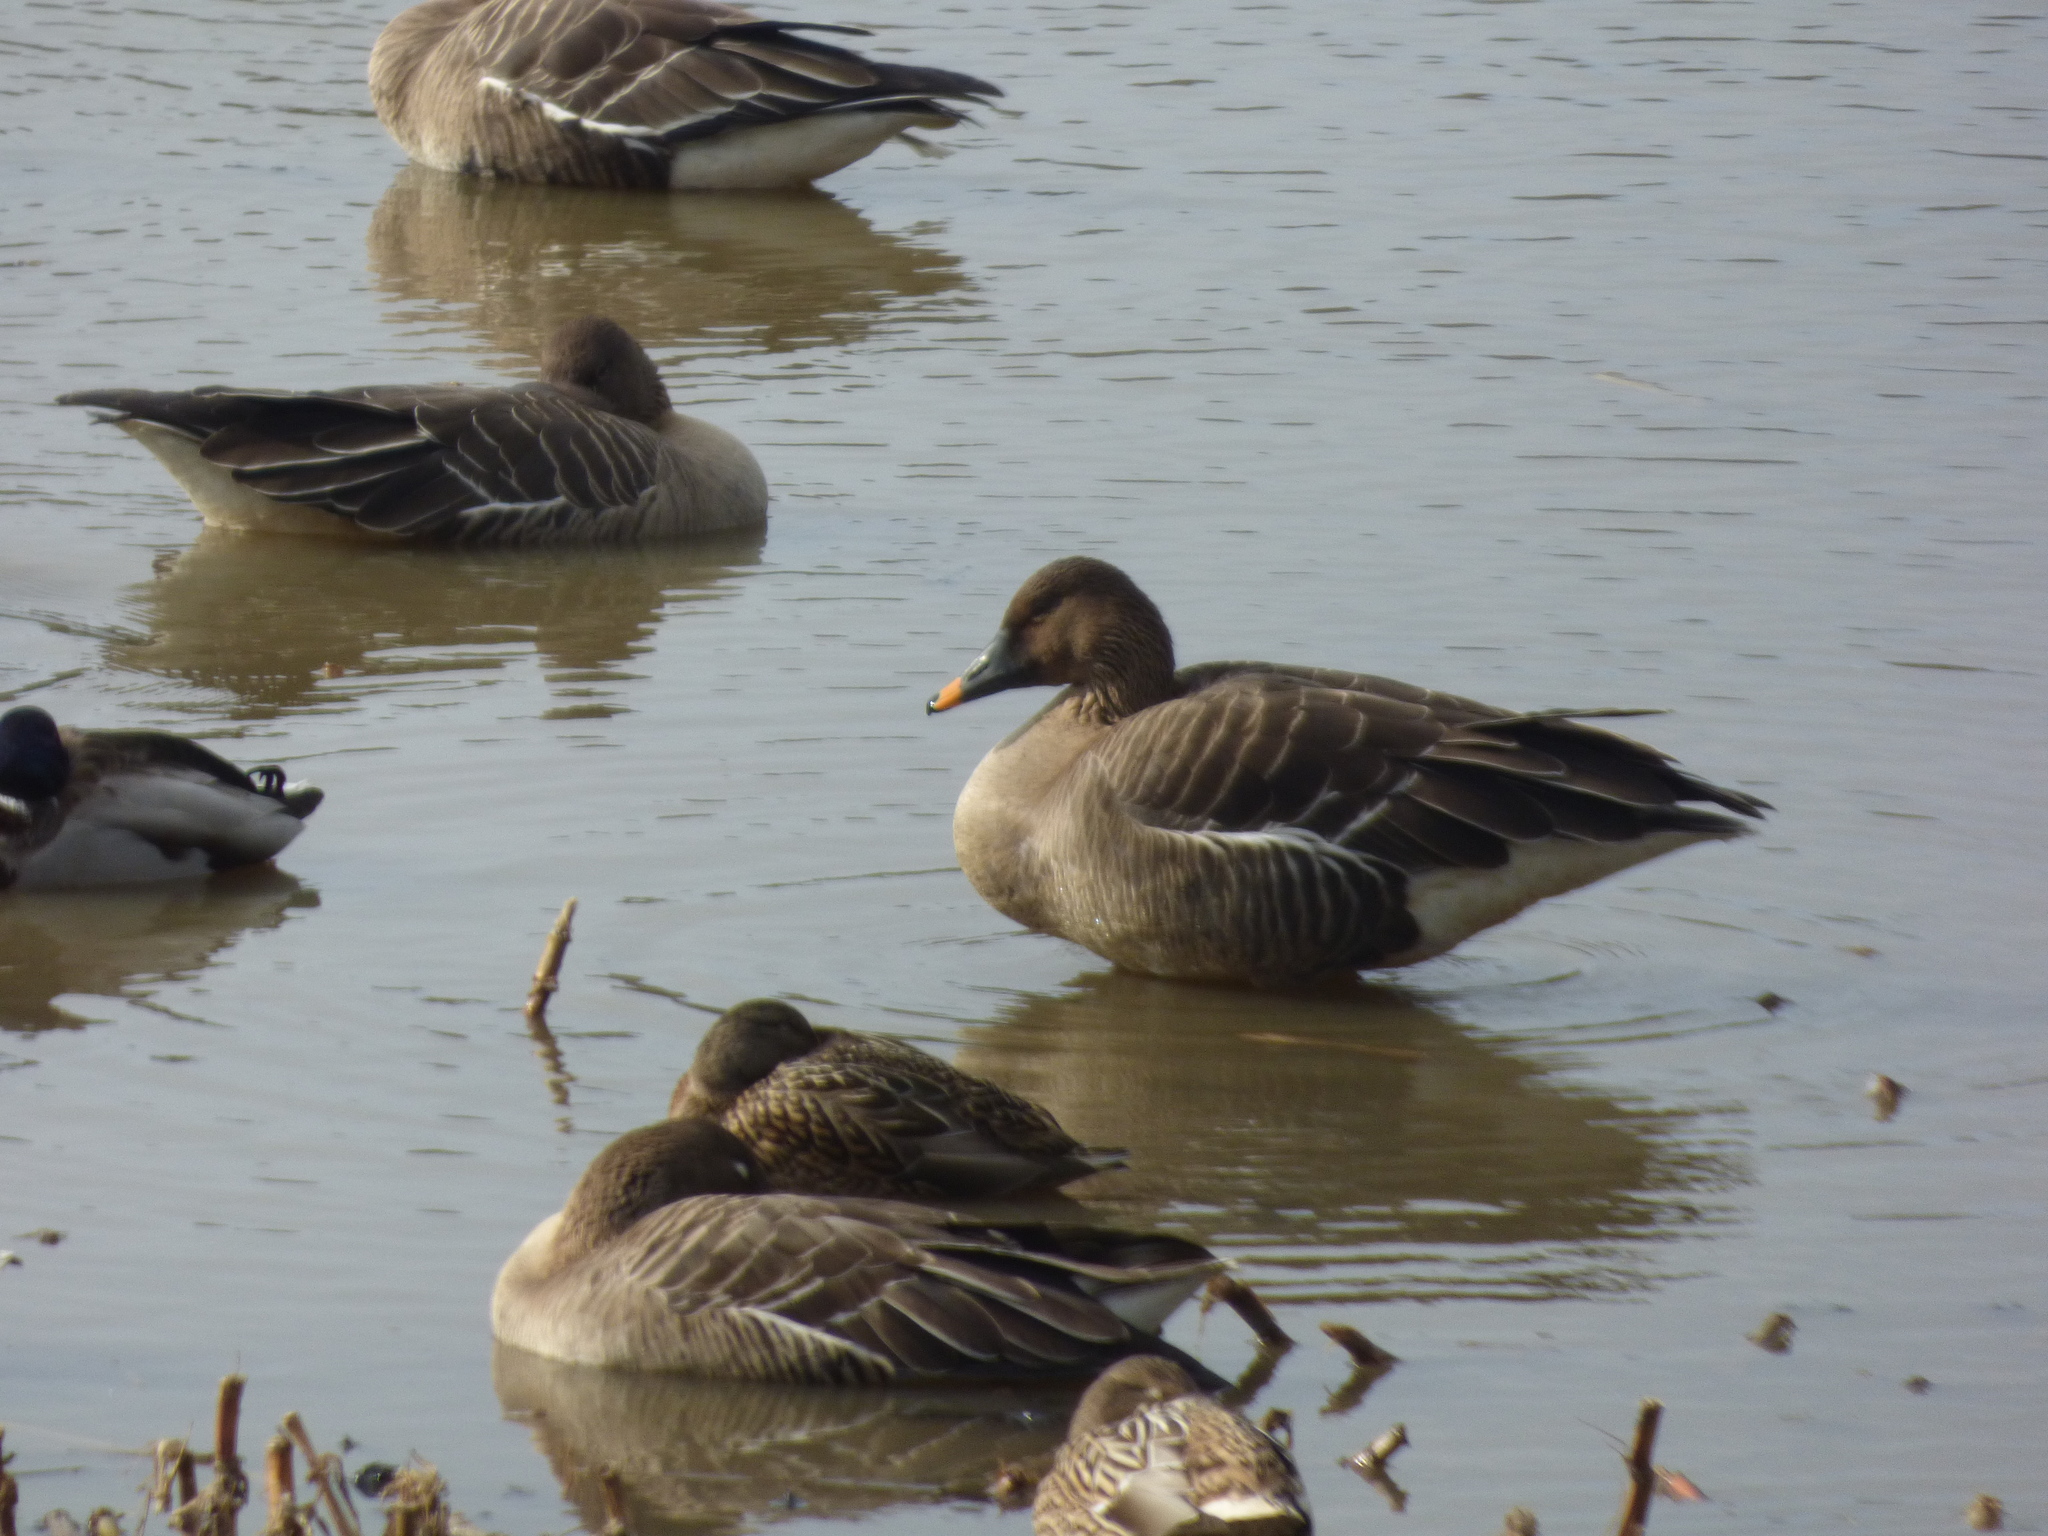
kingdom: Animalia
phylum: Chordata
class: Aves
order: Anseriformes
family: Anatidae
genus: Anser
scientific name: Anser fabalis
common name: Bean goose
